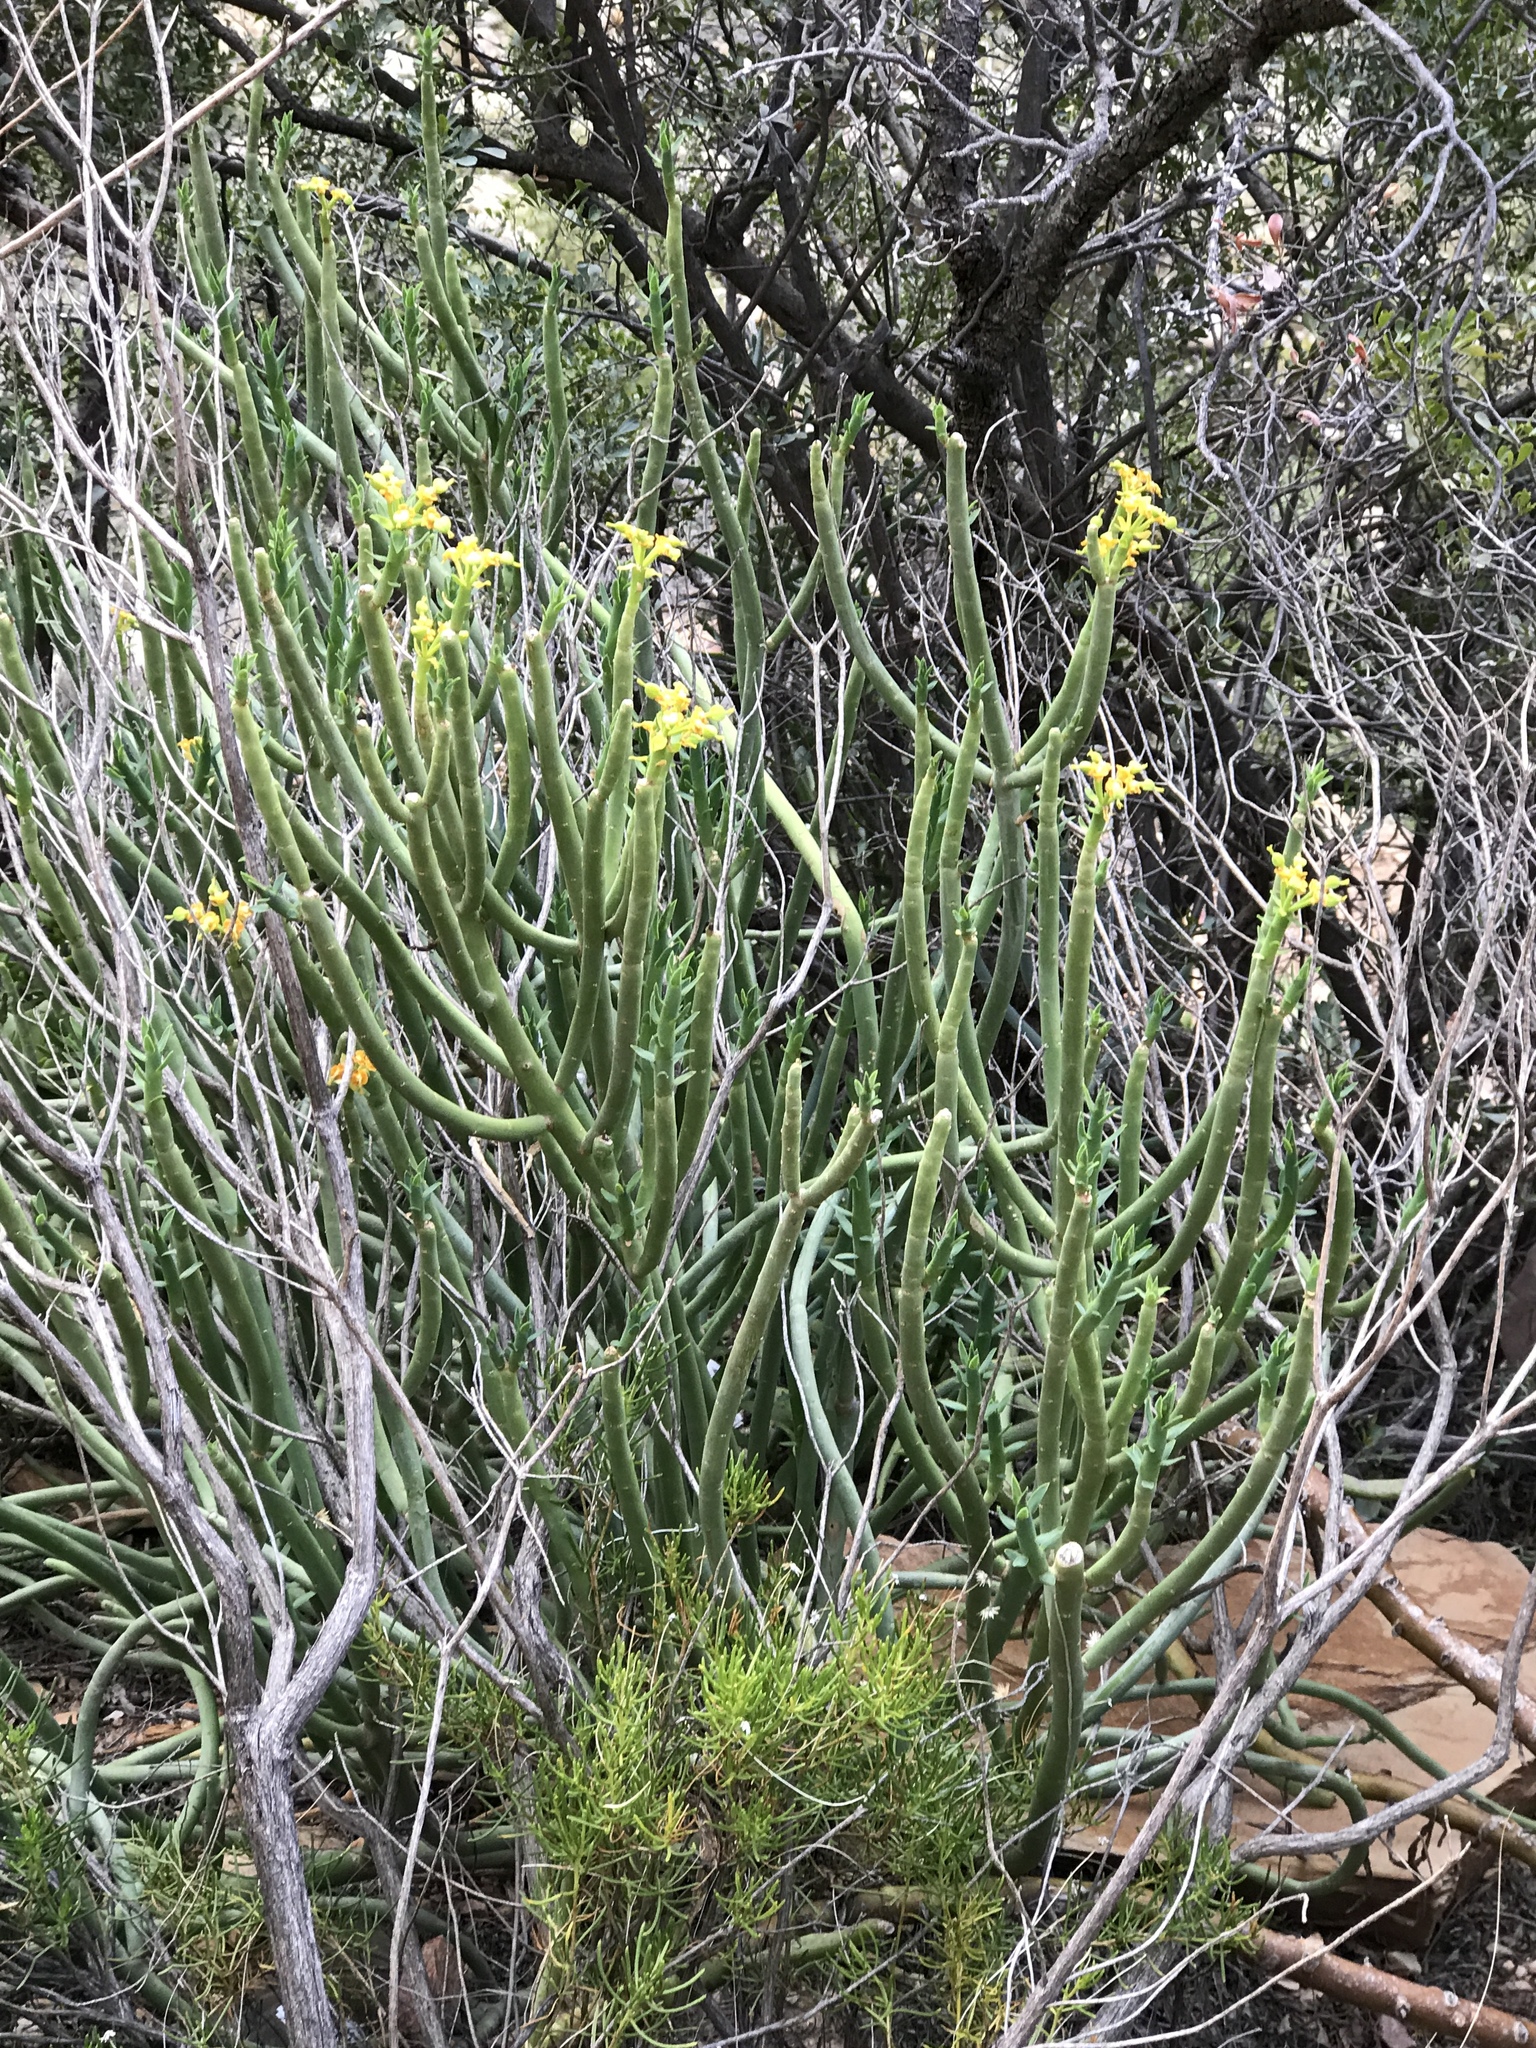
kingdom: Plantae
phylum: Tracheophyta
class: Magnoliopsida
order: Malpighiales
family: Euphorbiaceae
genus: Euphorbia
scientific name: Euphorbia mauritanica
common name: Jackal's-food
